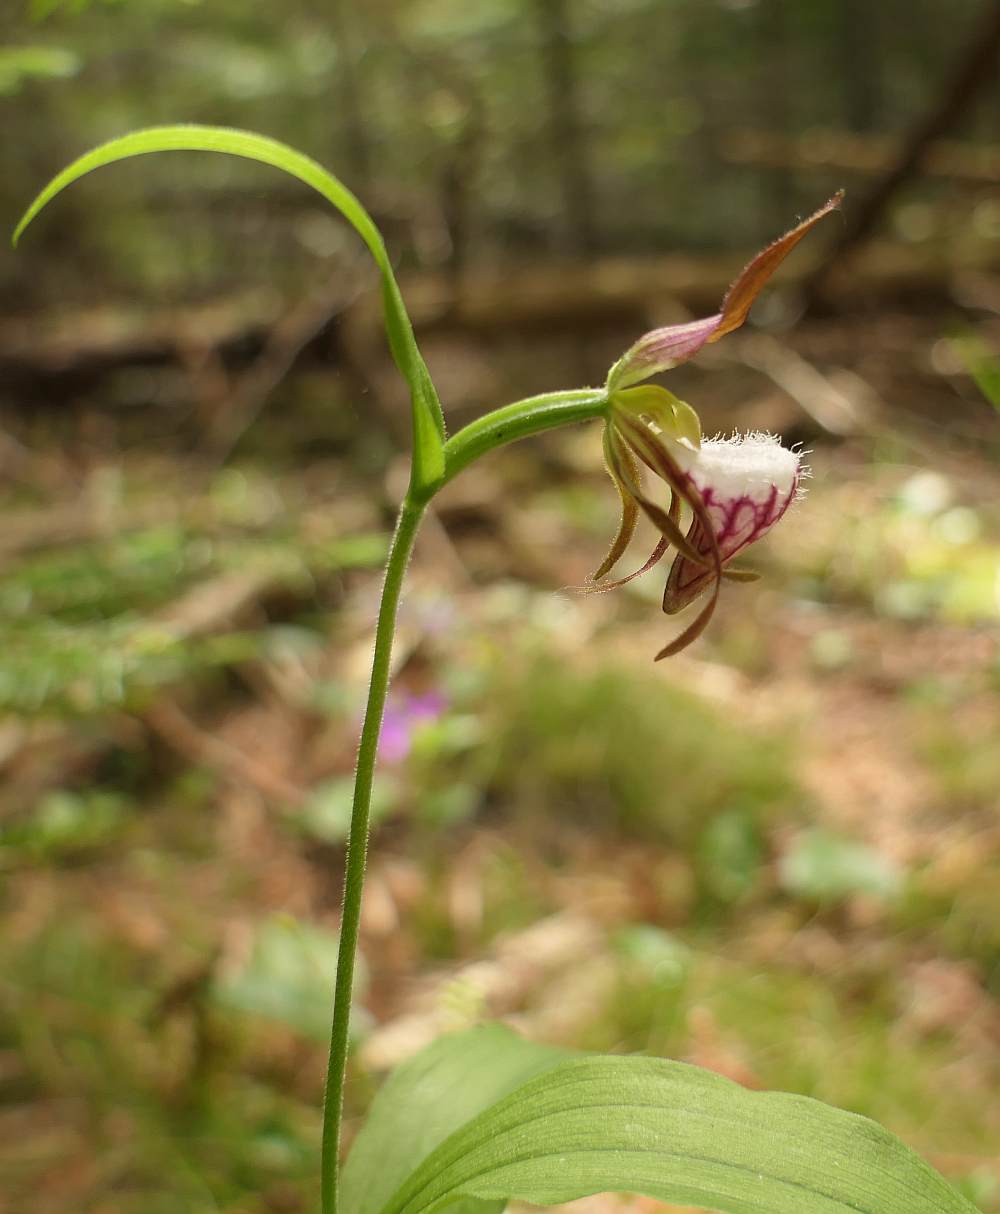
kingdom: Plantae
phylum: Tracheophyta
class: Liliopsida
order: Asparagales
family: Orchidaceae
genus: Cypripedium
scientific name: Cypripedium arietinum
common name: Ram's-head
